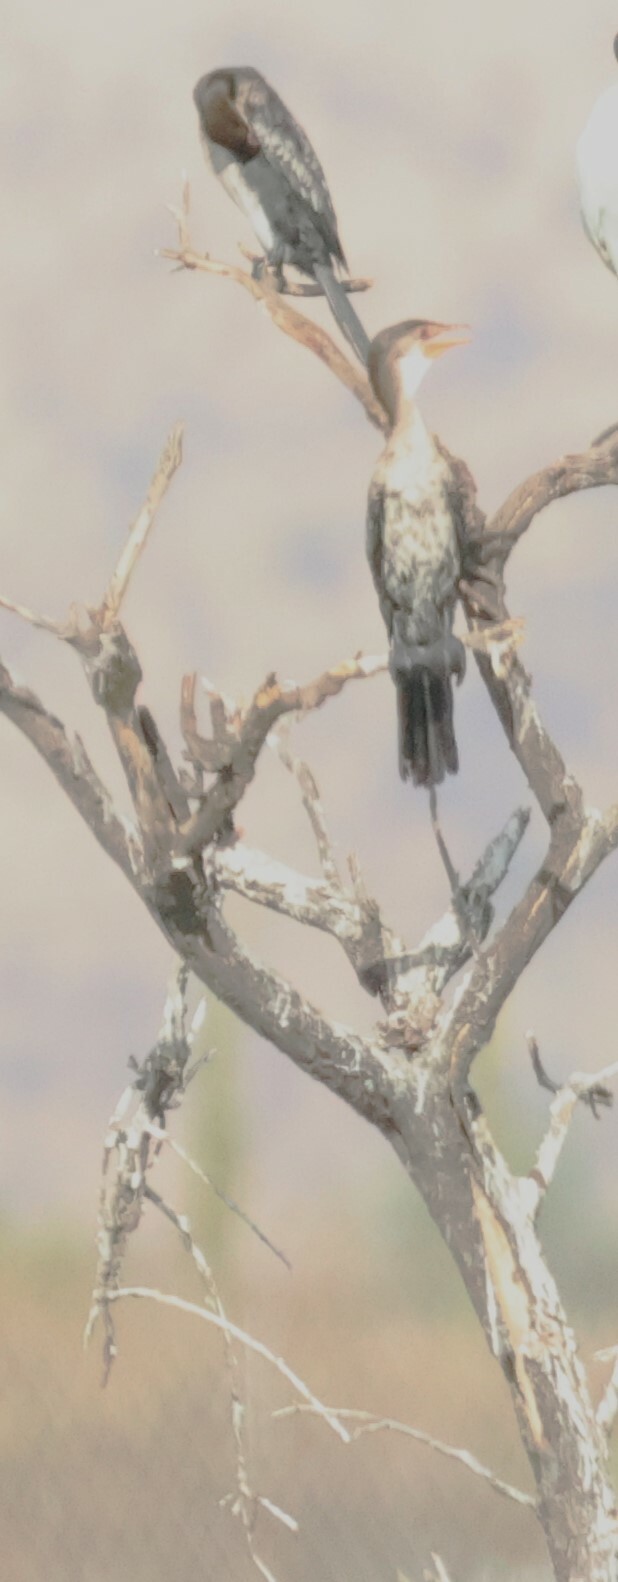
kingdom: Animalia
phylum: Chordata
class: Aves
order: Suliformes
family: Phalacrocoracidae
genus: Microcarbo
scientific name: Microcarbo africanus
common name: Long-tailed cormorant
